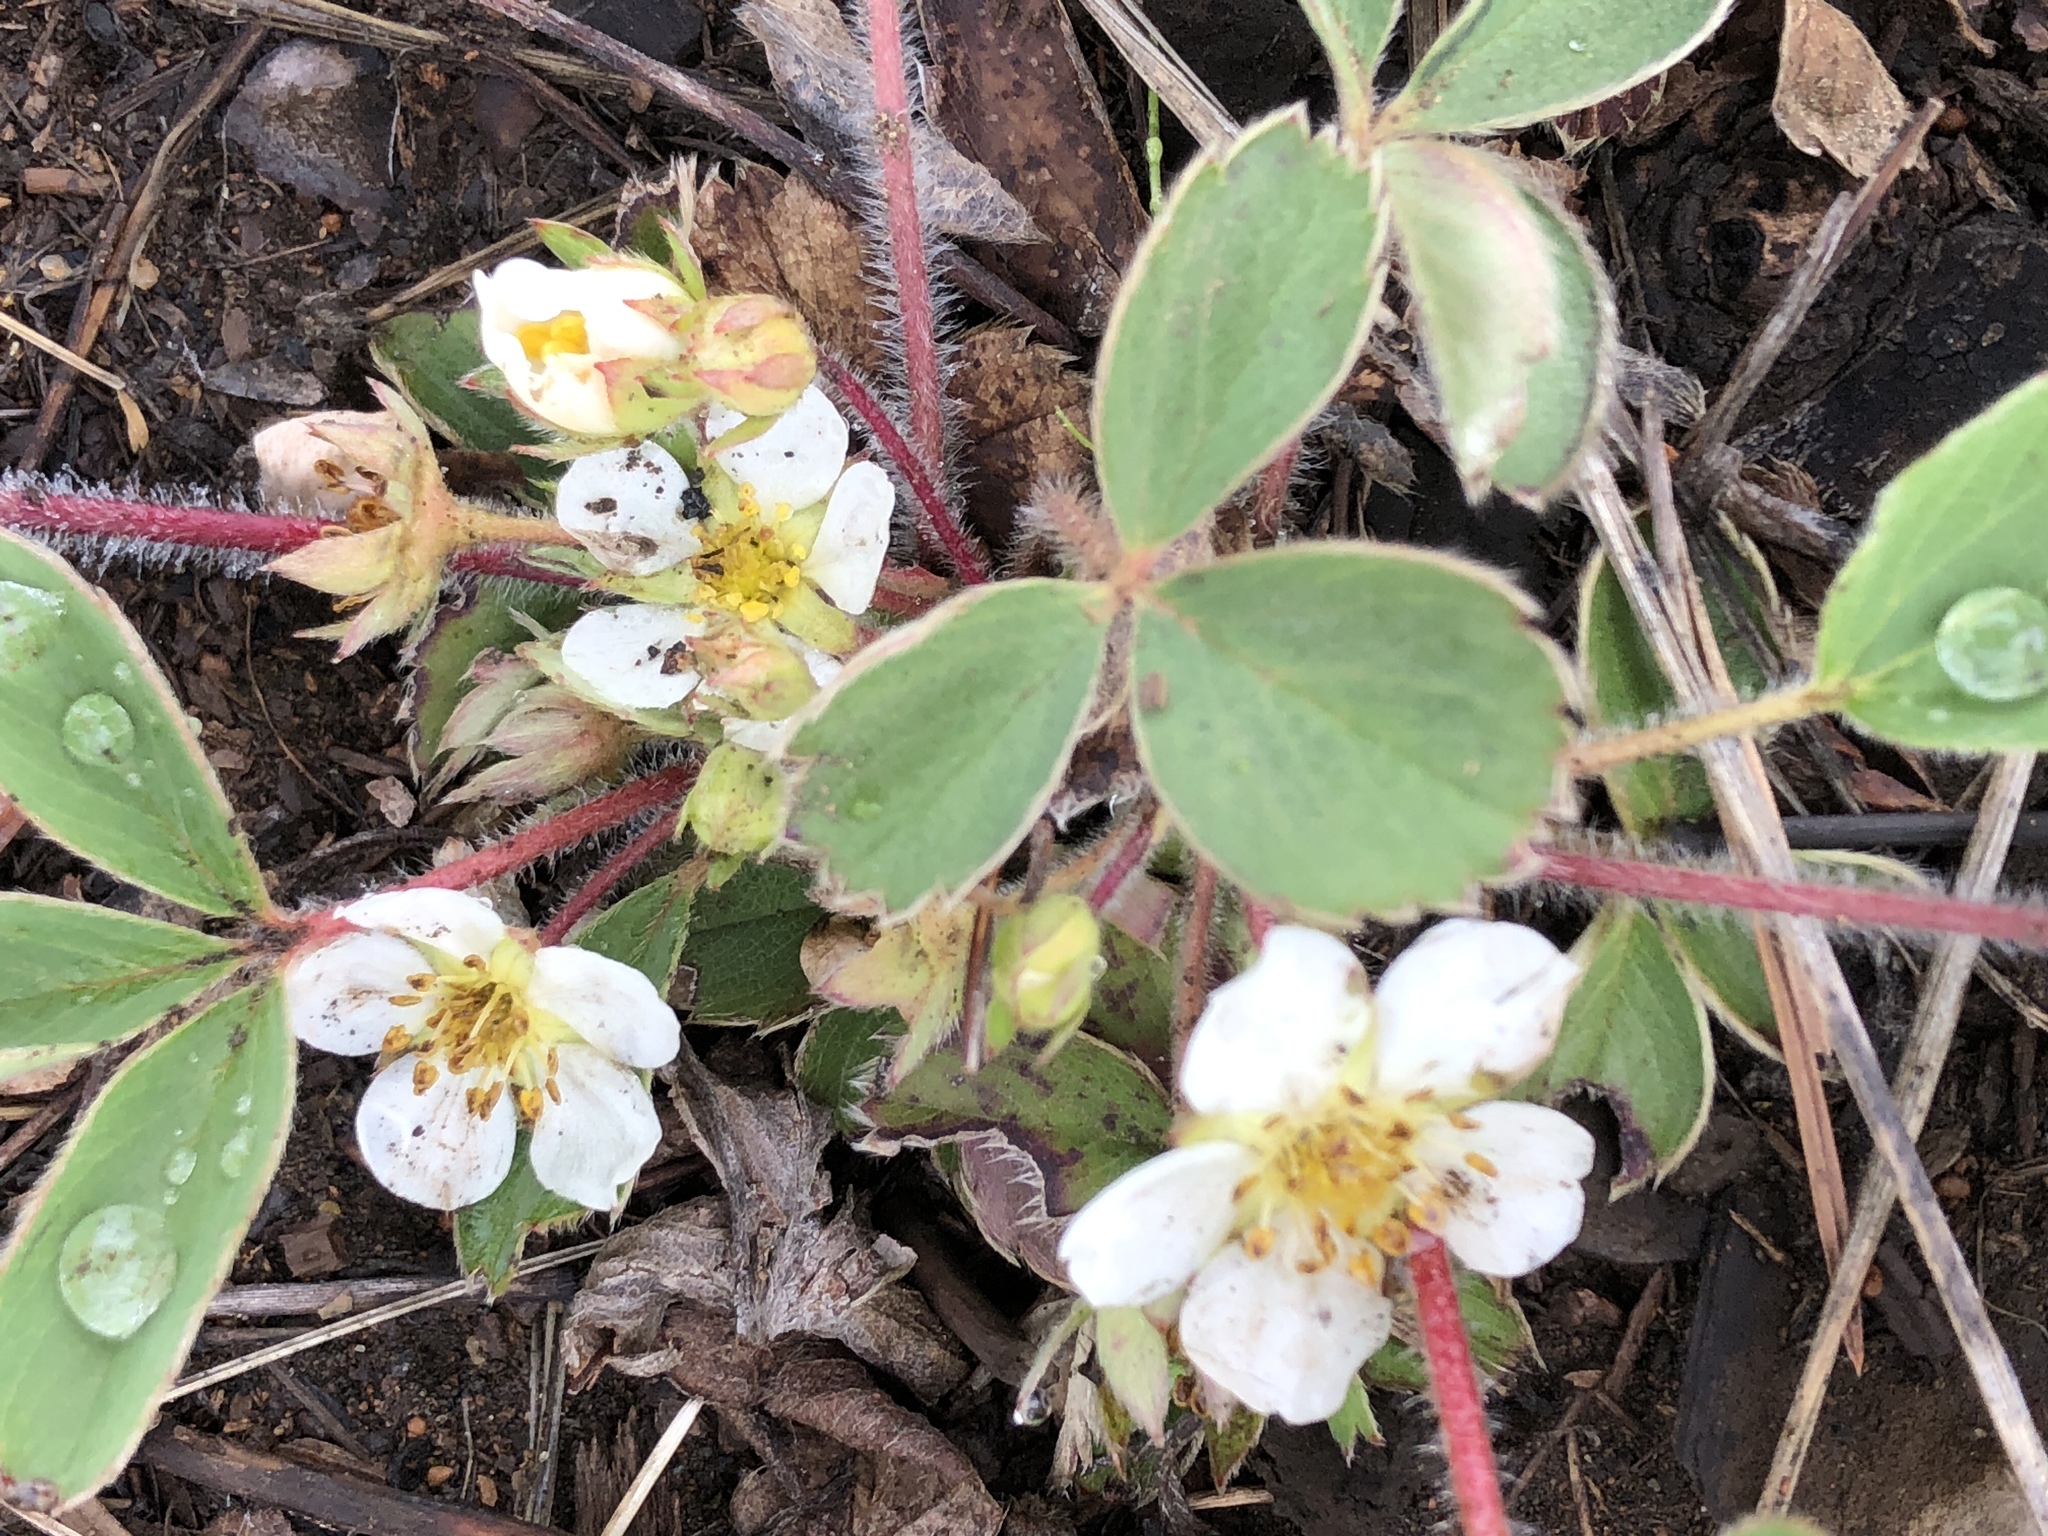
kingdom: Plantae
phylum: Tracheophyta
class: Magnoliopsida
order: Rosales
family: Rosaceae
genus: Fragaria
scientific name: Fragaria virginiana
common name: Thickleaved wild strawberry
